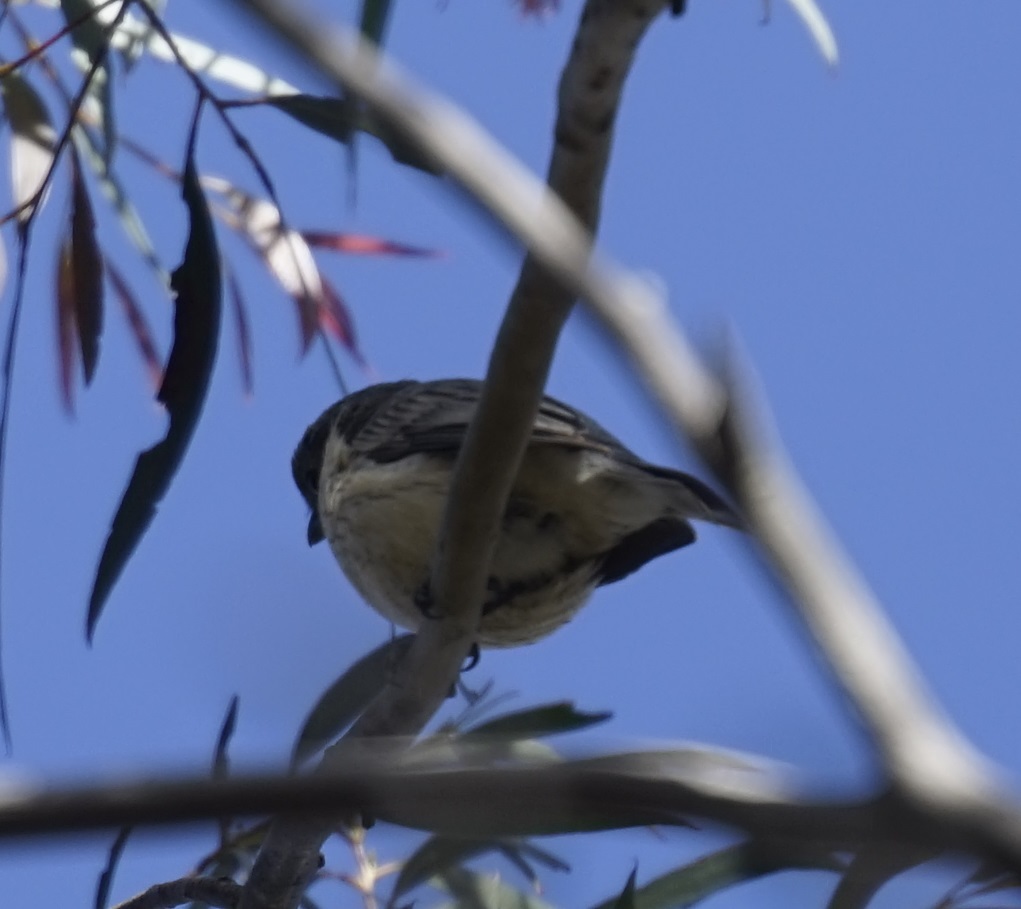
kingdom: Animalia
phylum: Chordata
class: Aves
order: Passeriformes
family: Pachycephalidae
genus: Pachycephala
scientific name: Pachycephala rufiventris
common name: Rufous whistler
